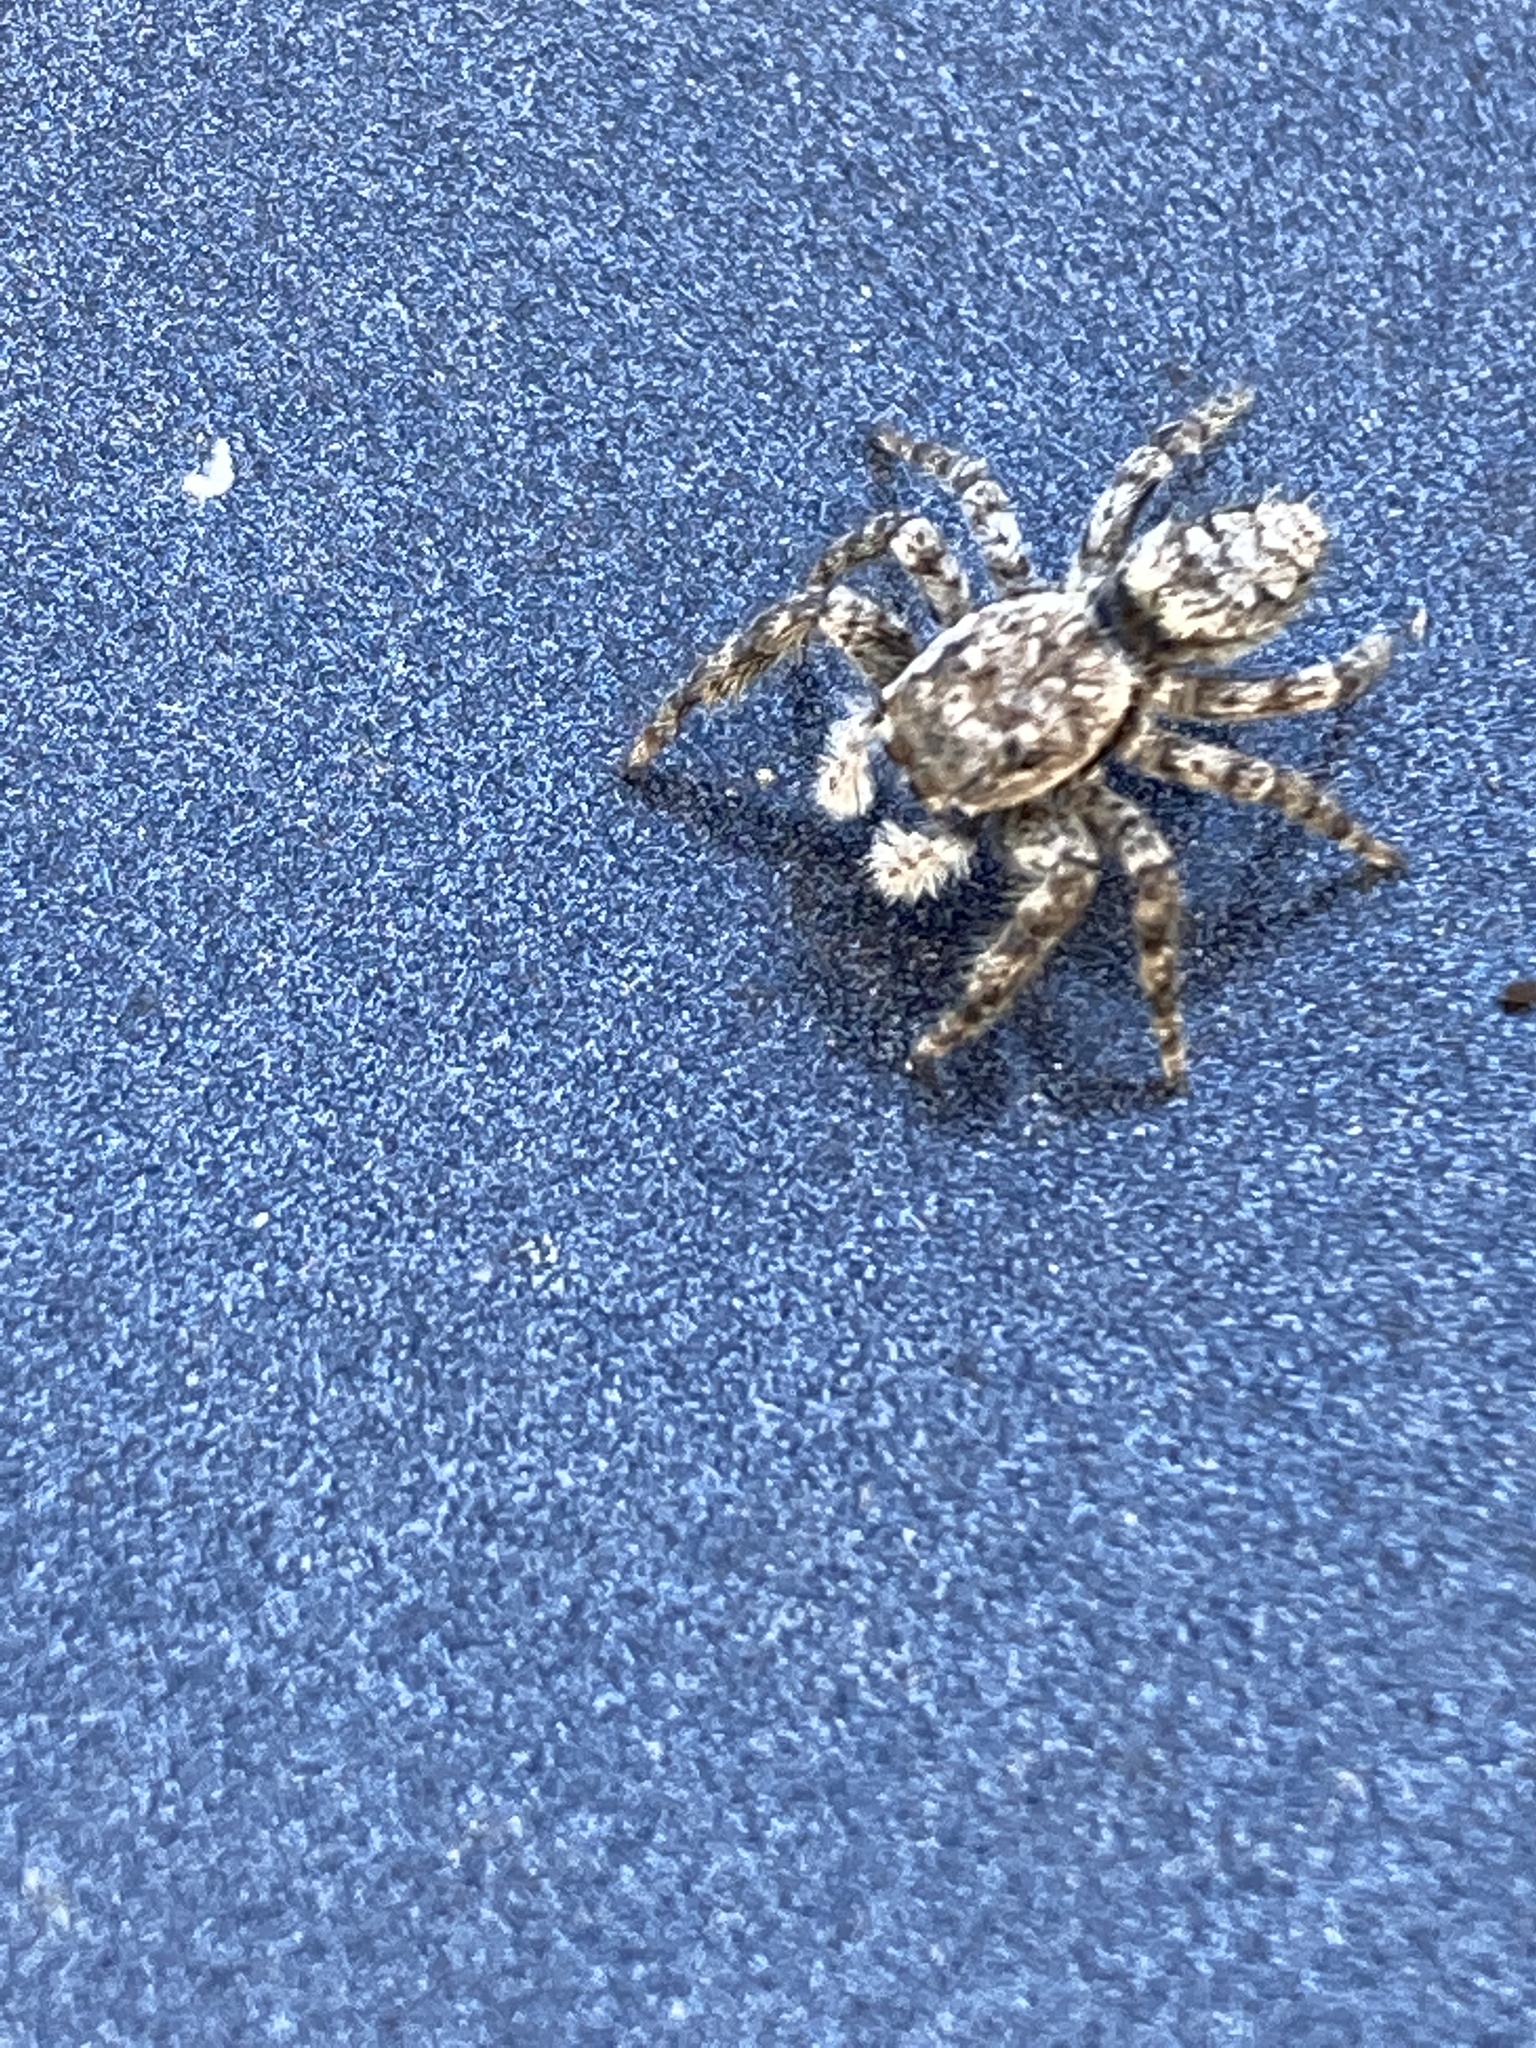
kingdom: Animalia
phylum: Arthropoda
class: Arachnida
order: Araneae
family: Salticidae
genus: Platycryptus
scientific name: Platycryptus undatus
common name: Tan jumping spider
